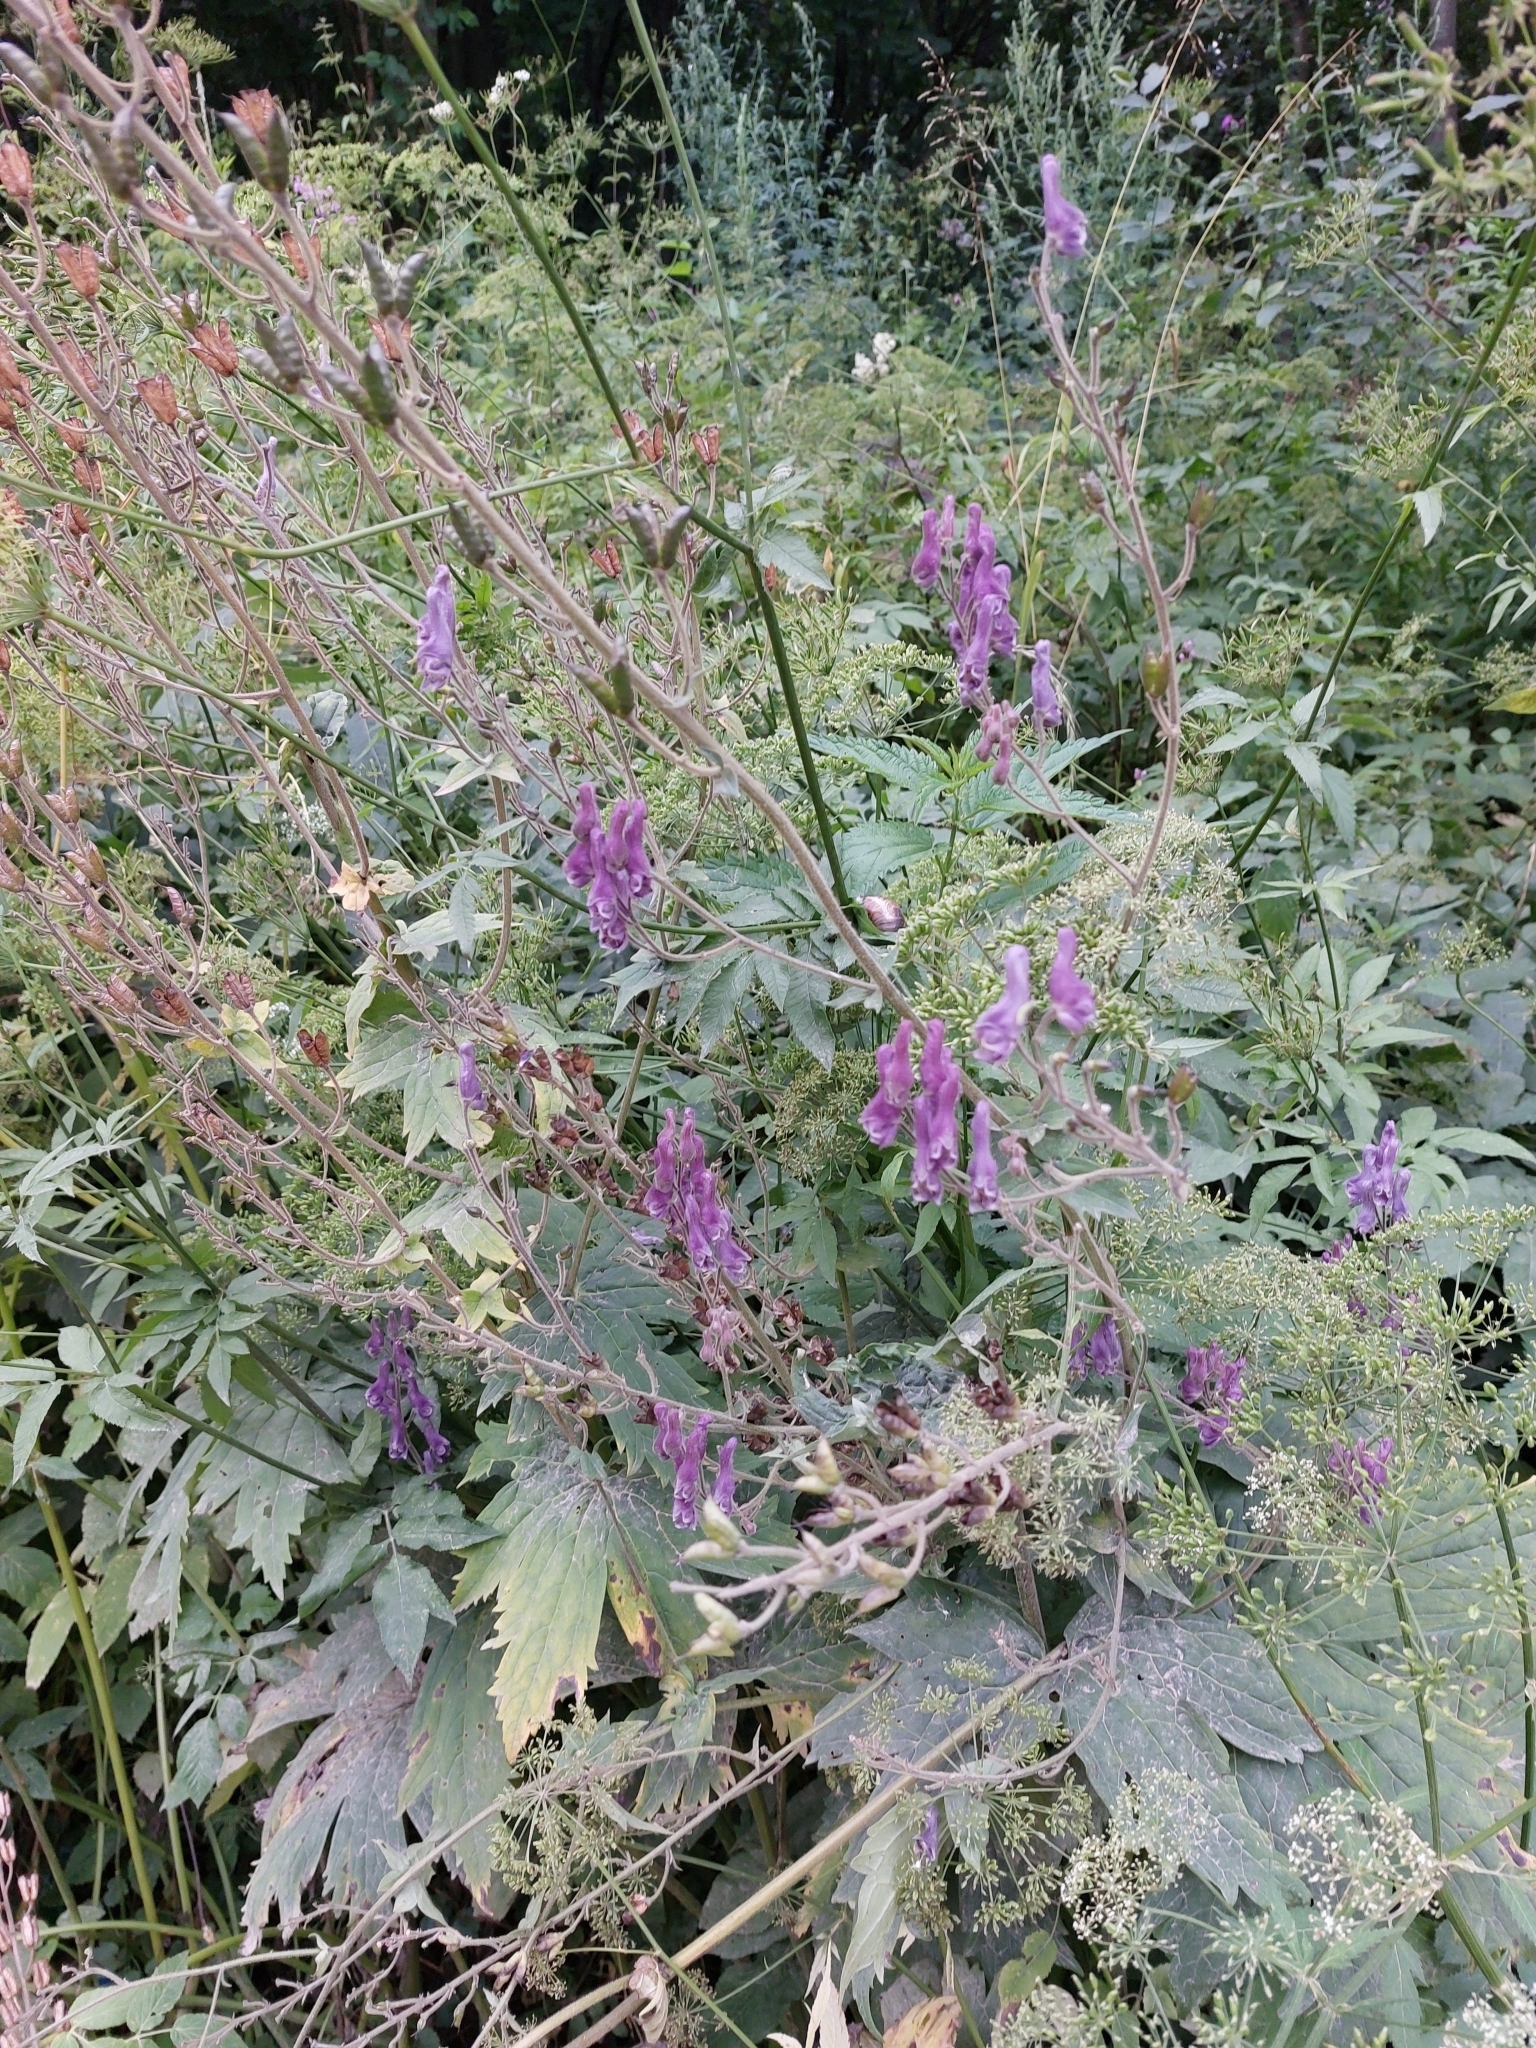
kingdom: Plantae
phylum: Tracheophyta
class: Magnoliopsida
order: Ranunculales
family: Ranunculaceae
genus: Aconitum
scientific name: Aconitum septentrionale
